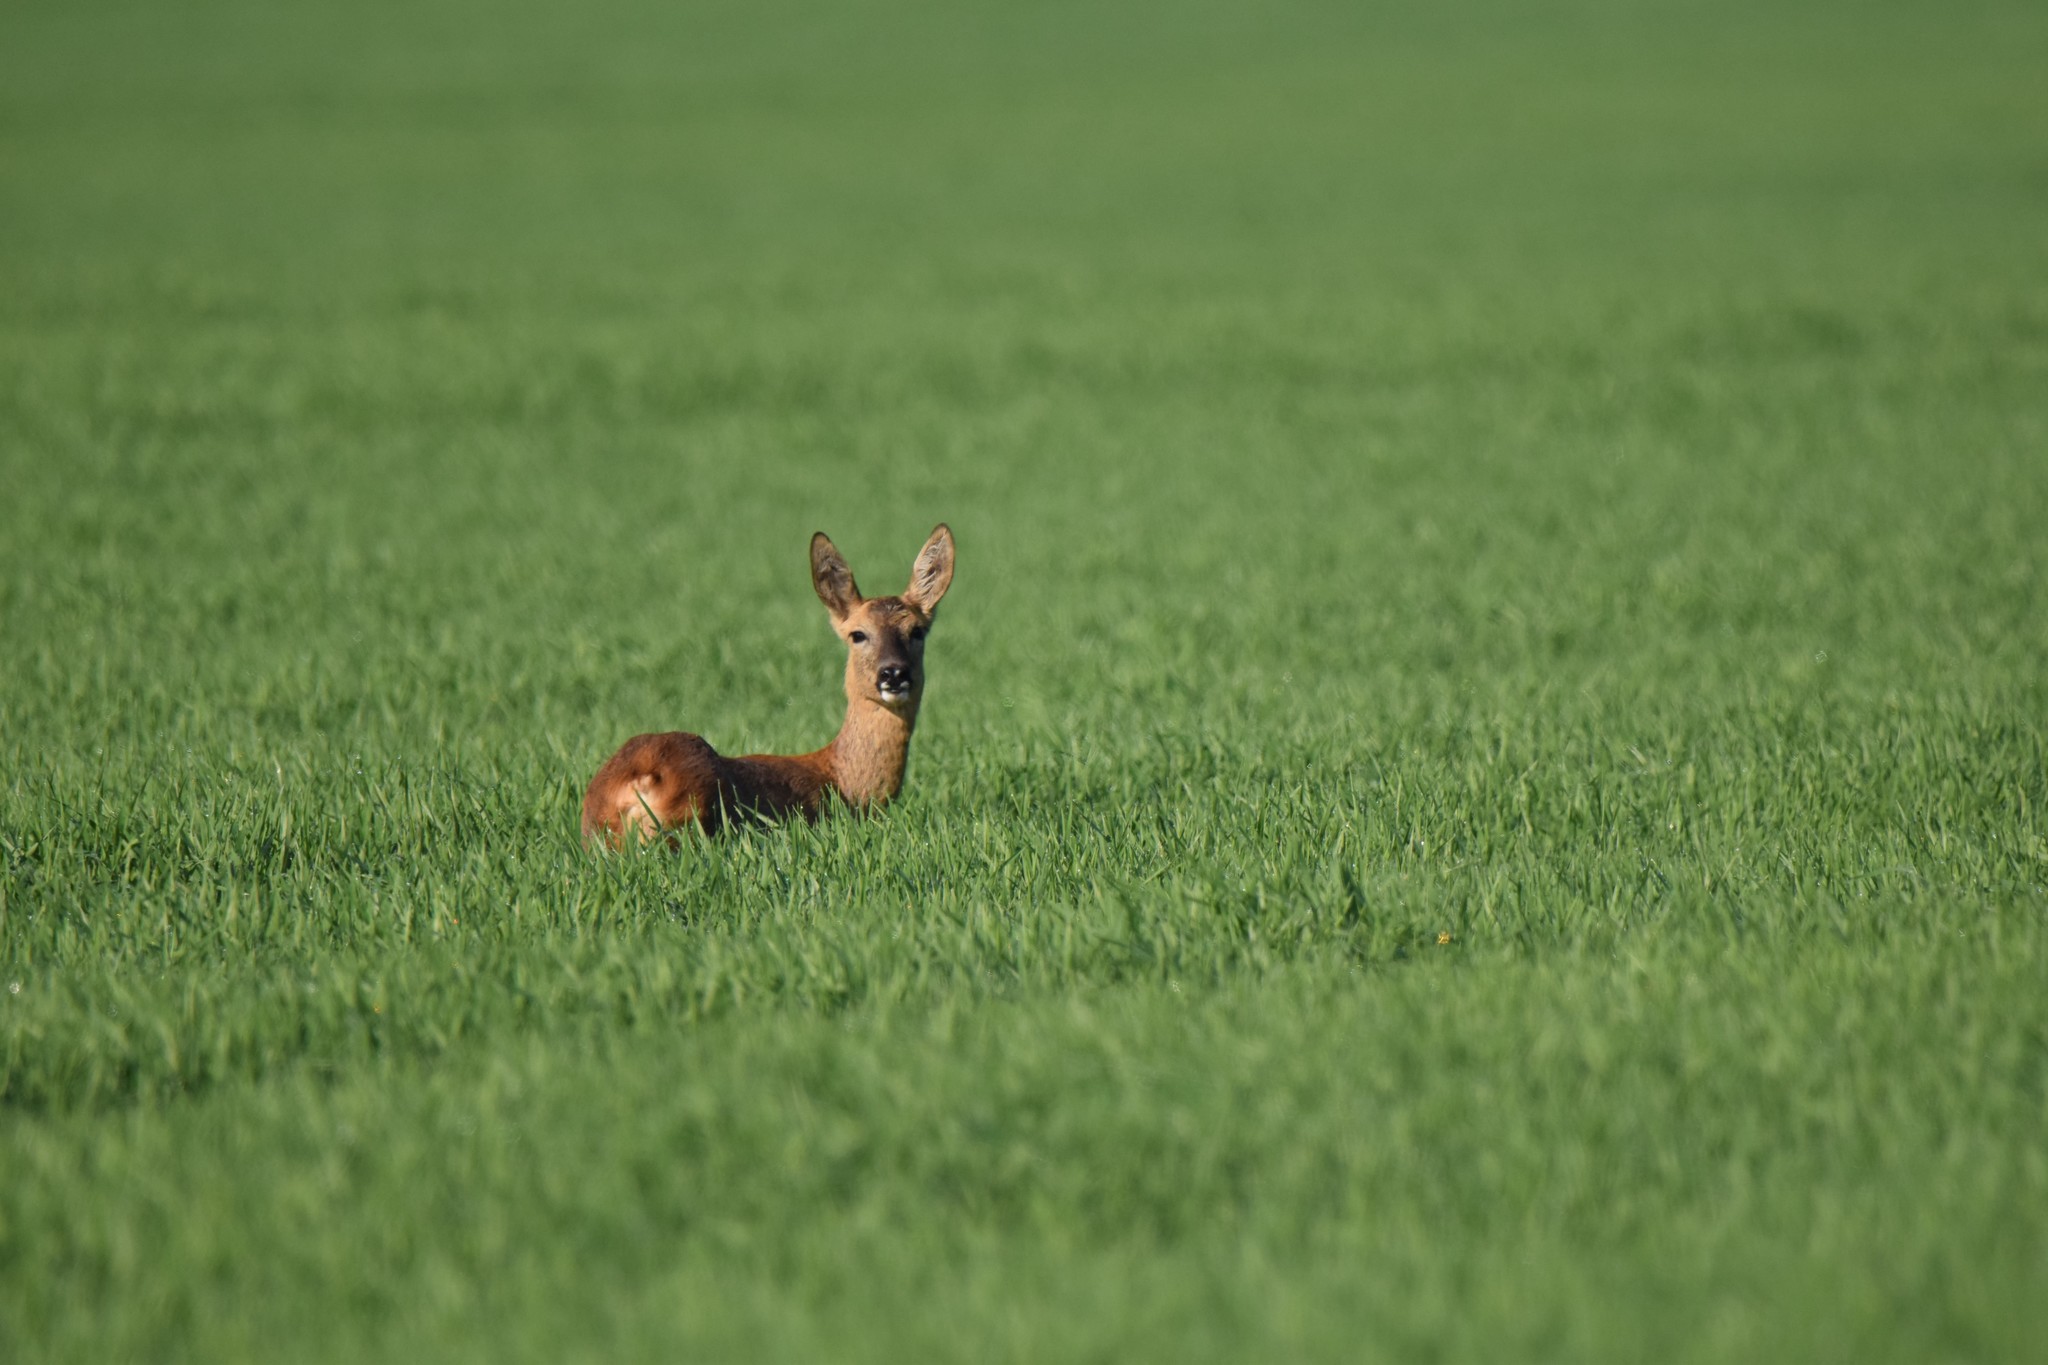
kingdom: Animalia
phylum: Chordata
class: Mammalia
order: Artiodactyla
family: Cervidae
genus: Capreolus
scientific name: Capreolus capreolus
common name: Western roe deer
